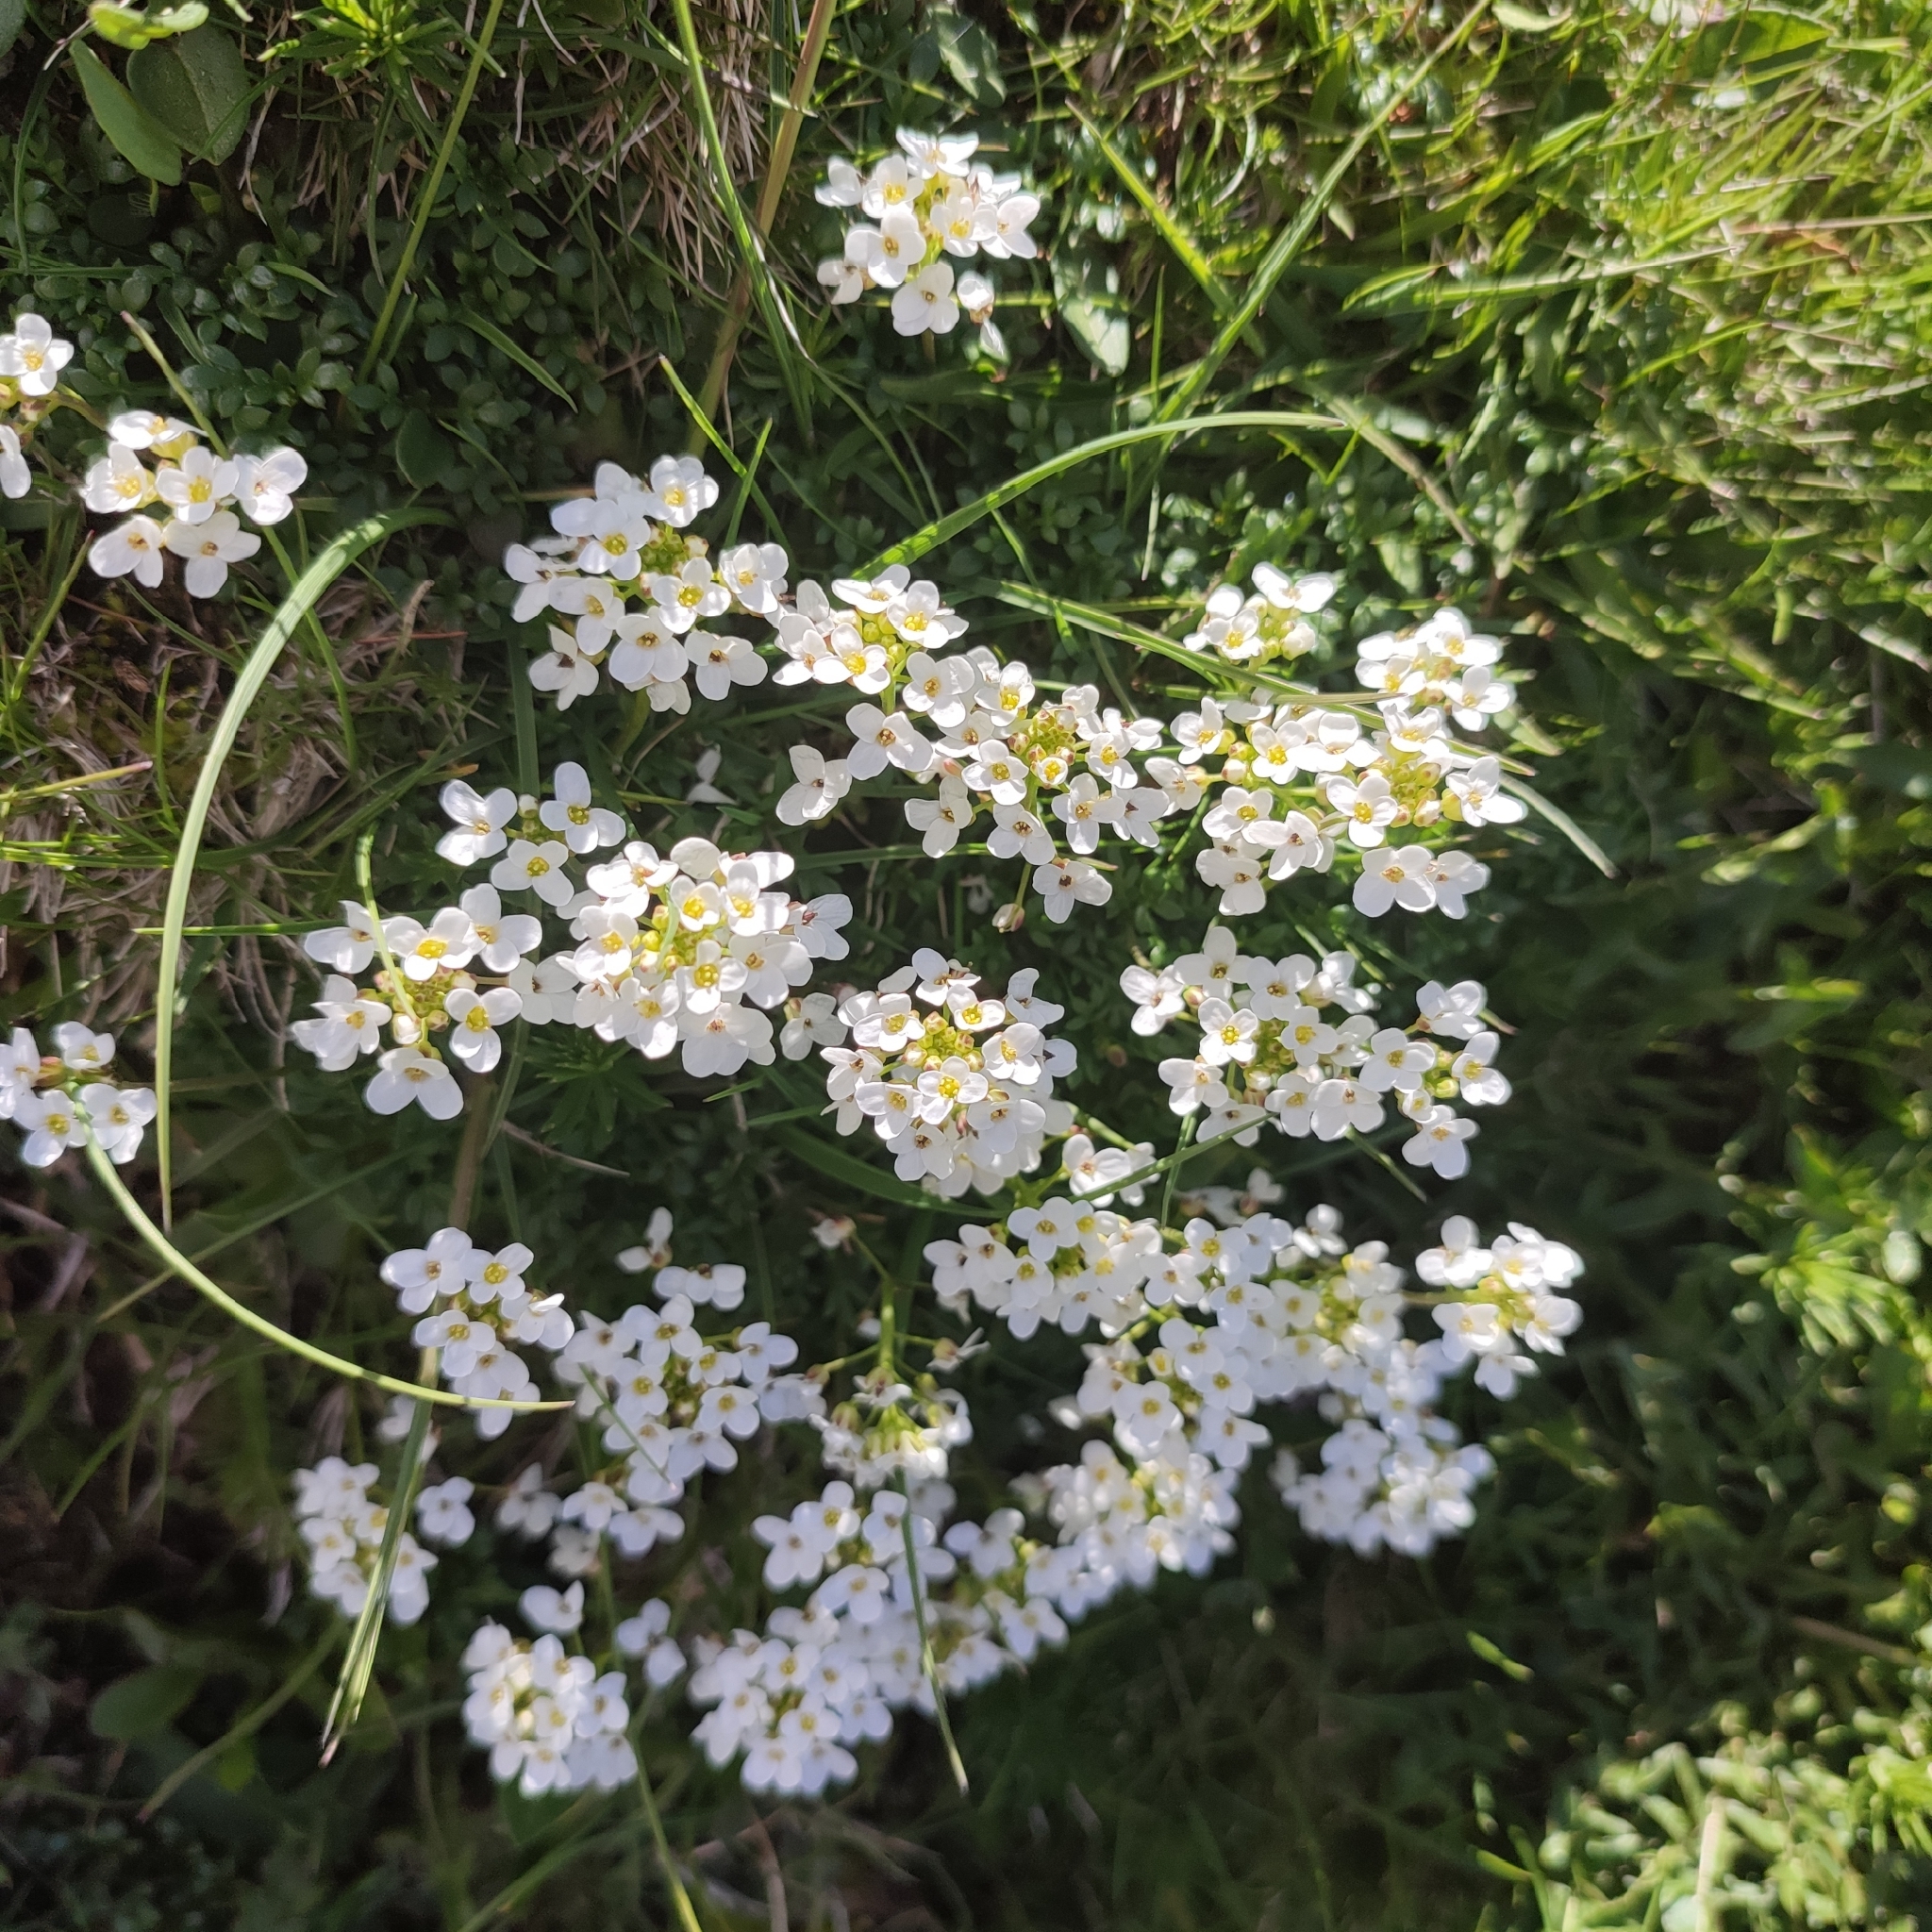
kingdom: Plantae
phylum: Tracheophyta
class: Magnoliopsida
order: Brassicales
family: Brassicaceae
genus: Hornungia
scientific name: Hornungia alpina
